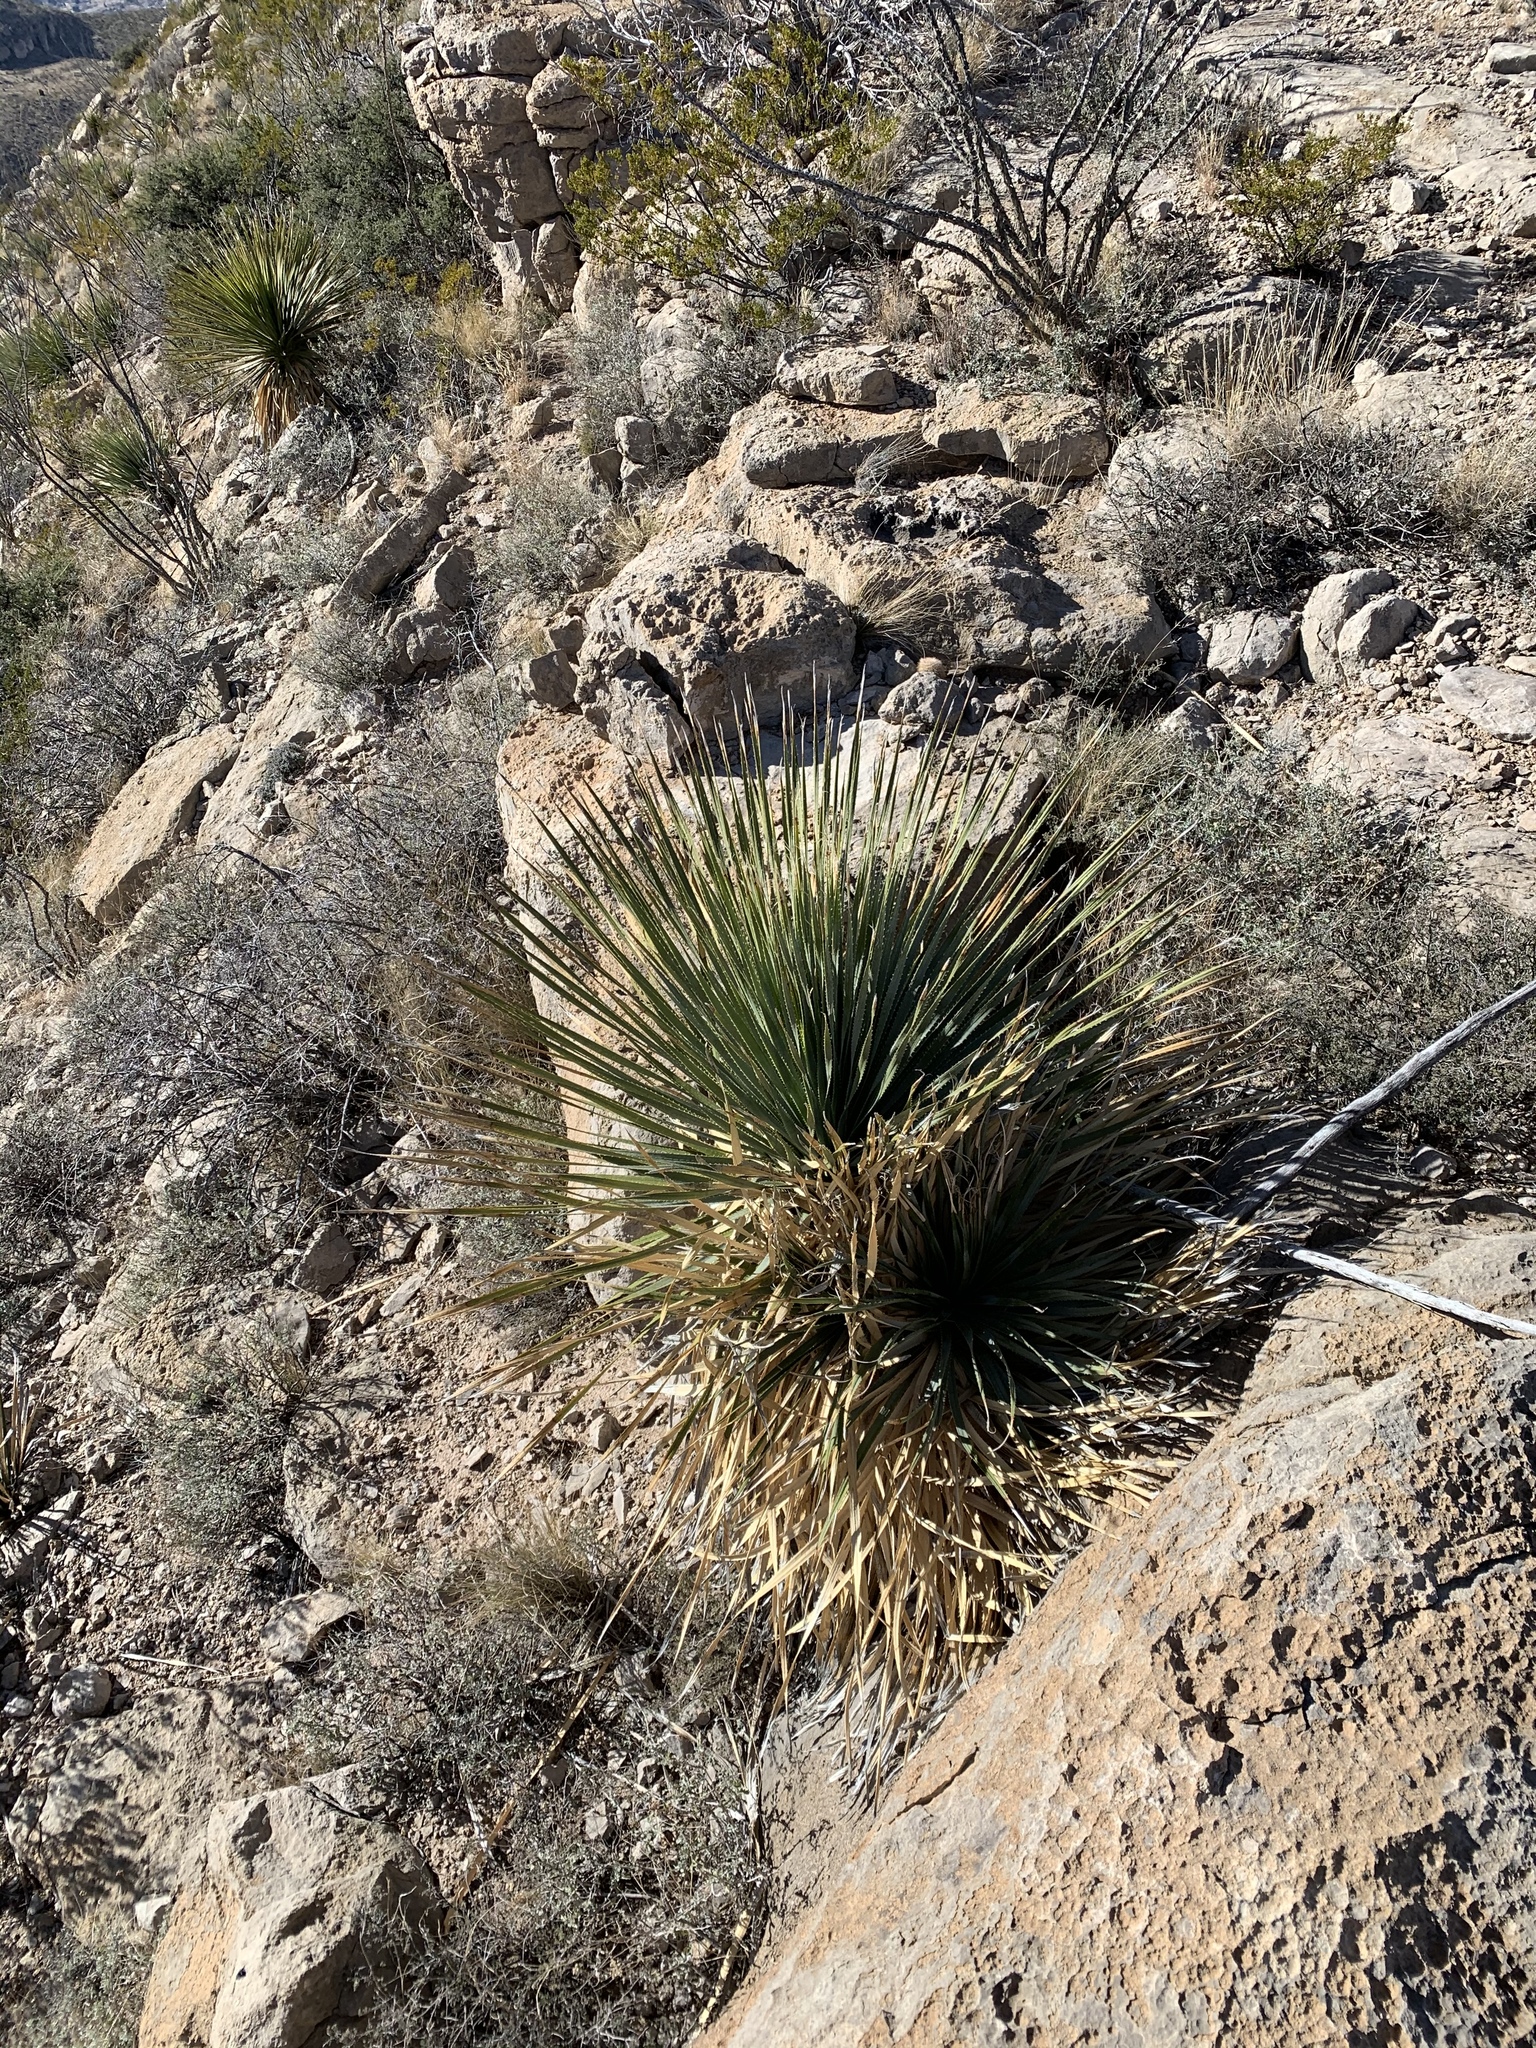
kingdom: Plantae
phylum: Tracheophyta
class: Liliopsida
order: Asparagales
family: Asparagaceae
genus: Dasylirion
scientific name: Dasylirion wheeleri
